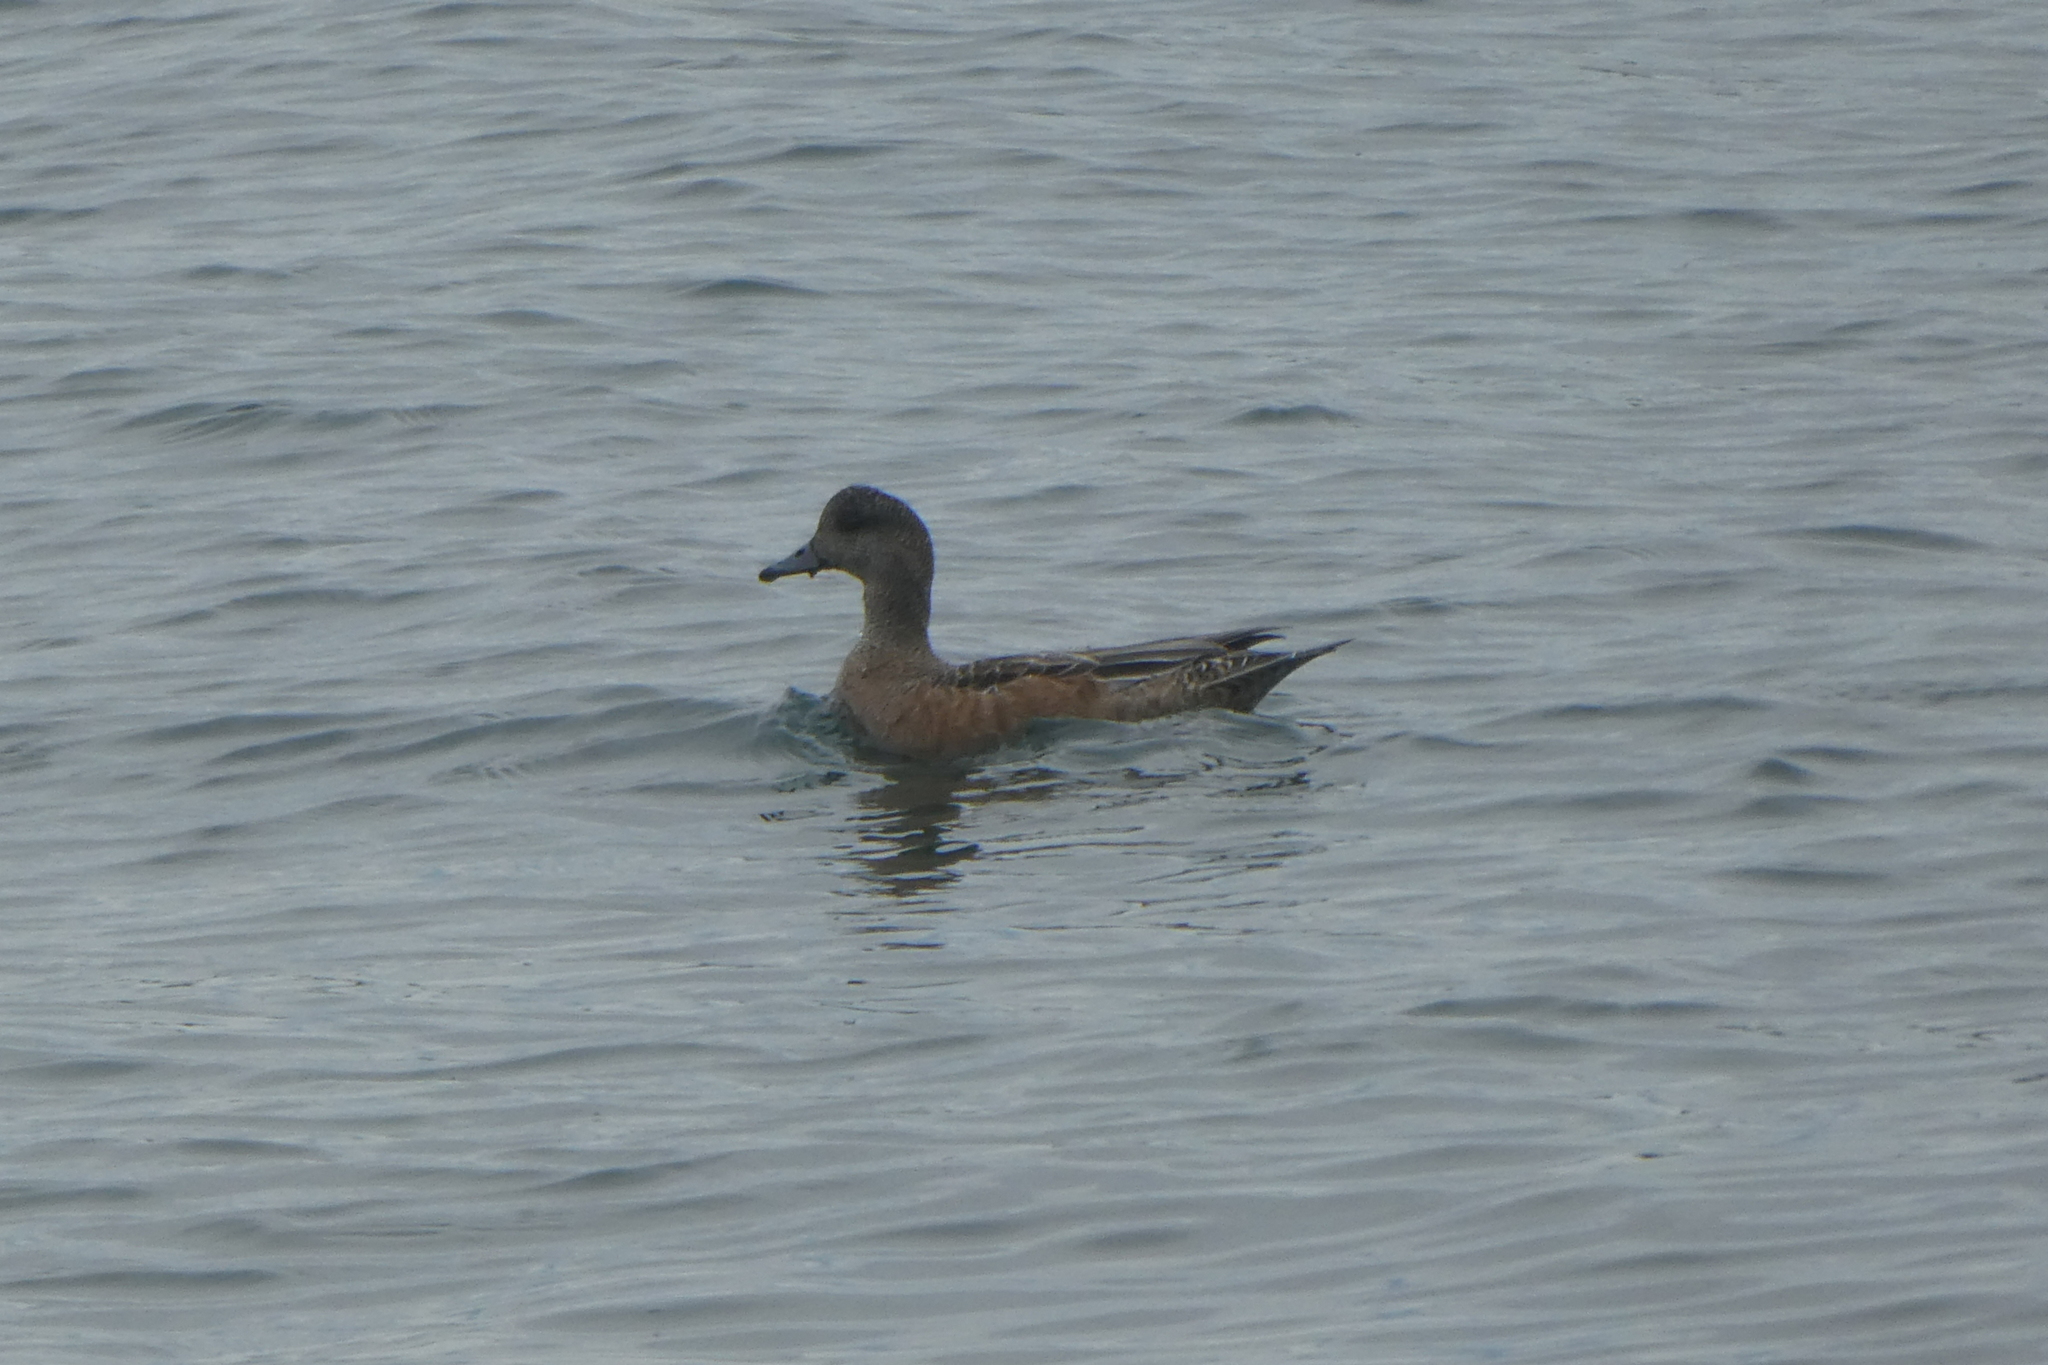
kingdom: Animalia
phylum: Chordata
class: Aves
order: Anseriformes
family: Anatidae
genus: Mareca
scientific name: Mareca americana
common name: American wigeon
